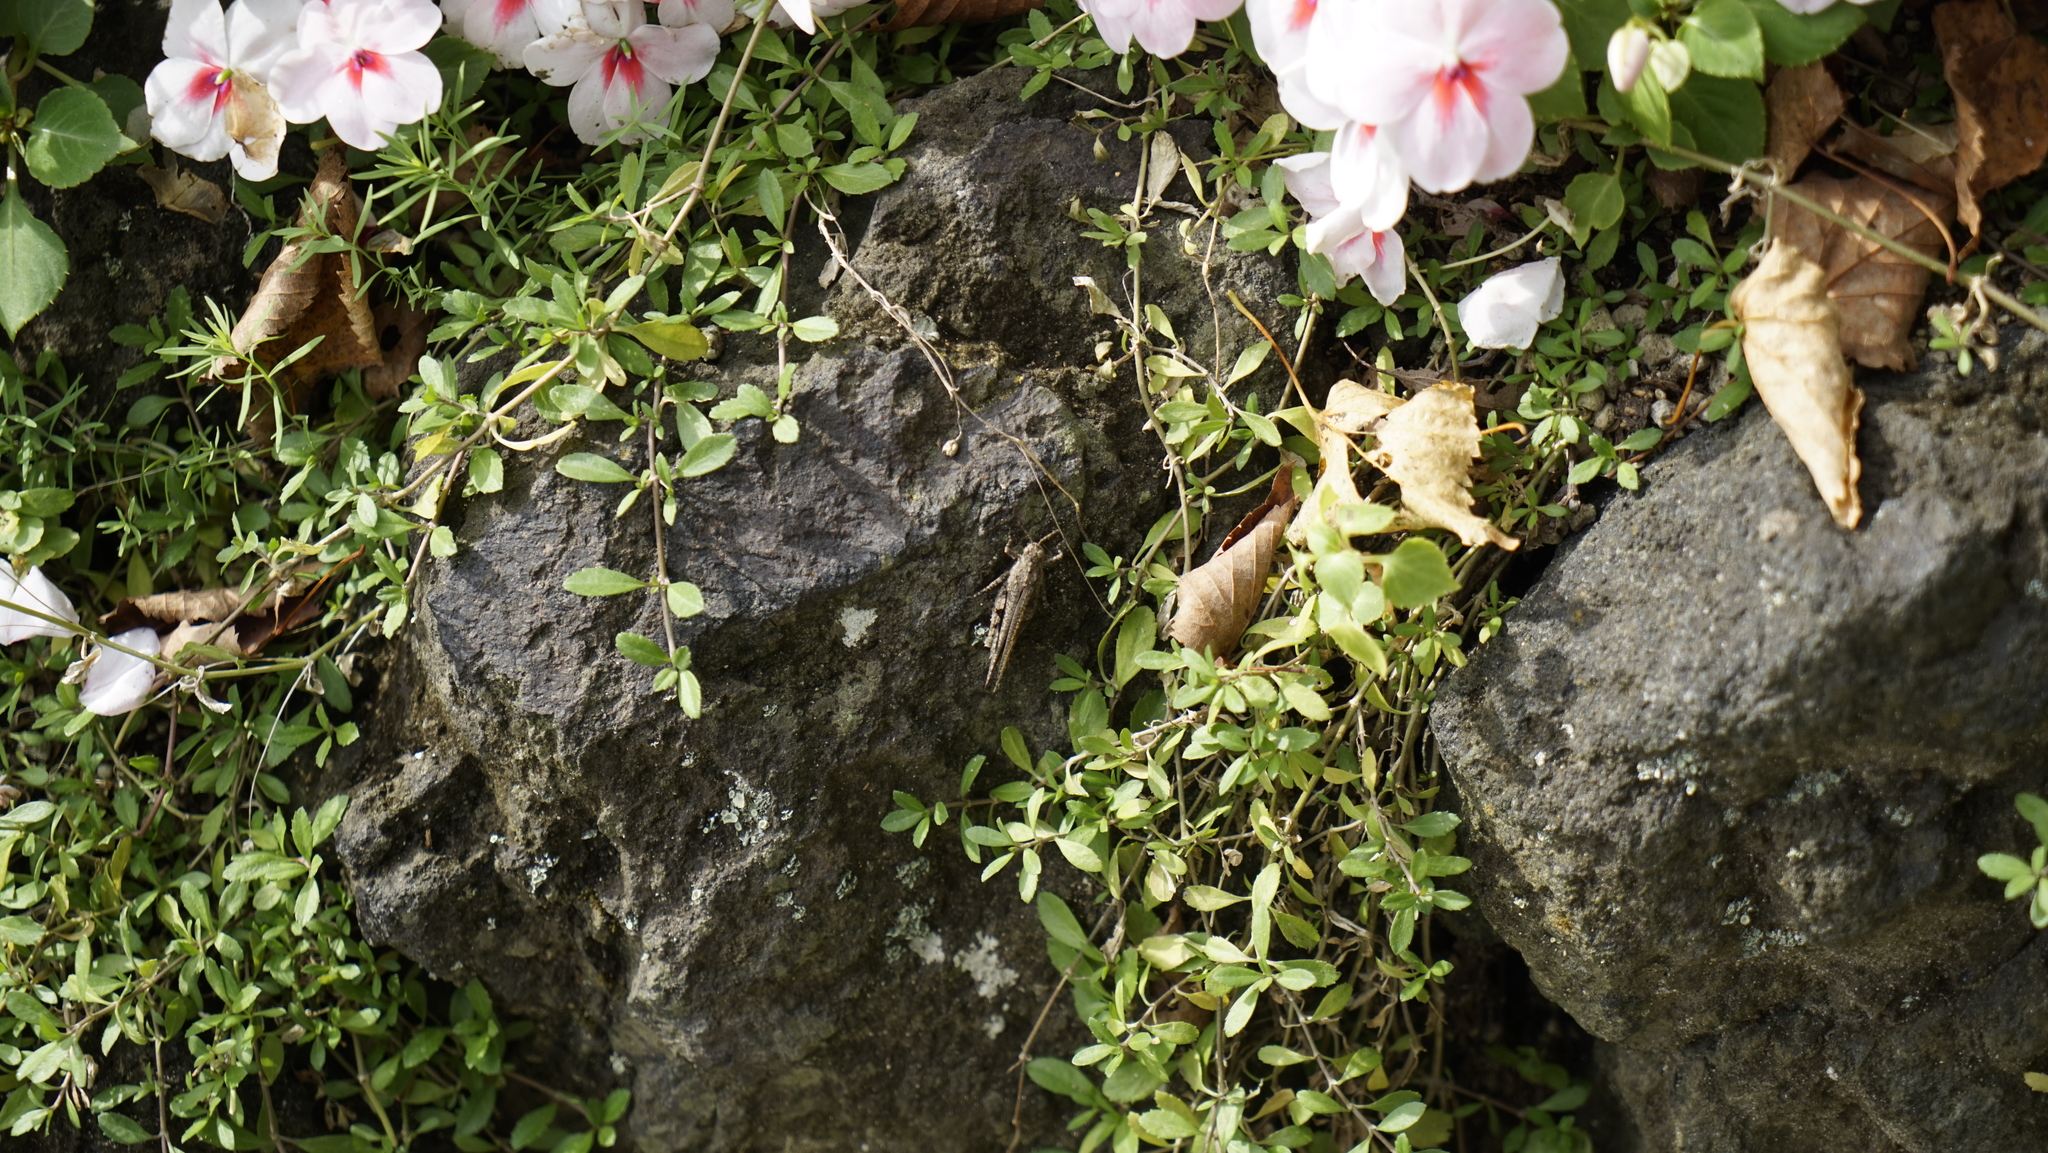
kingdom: Animalia
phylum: Arthropoda
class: Insecta
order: Orthoptera
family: Acrididae
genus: Trilophidia
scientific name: Trilophidia annulata
